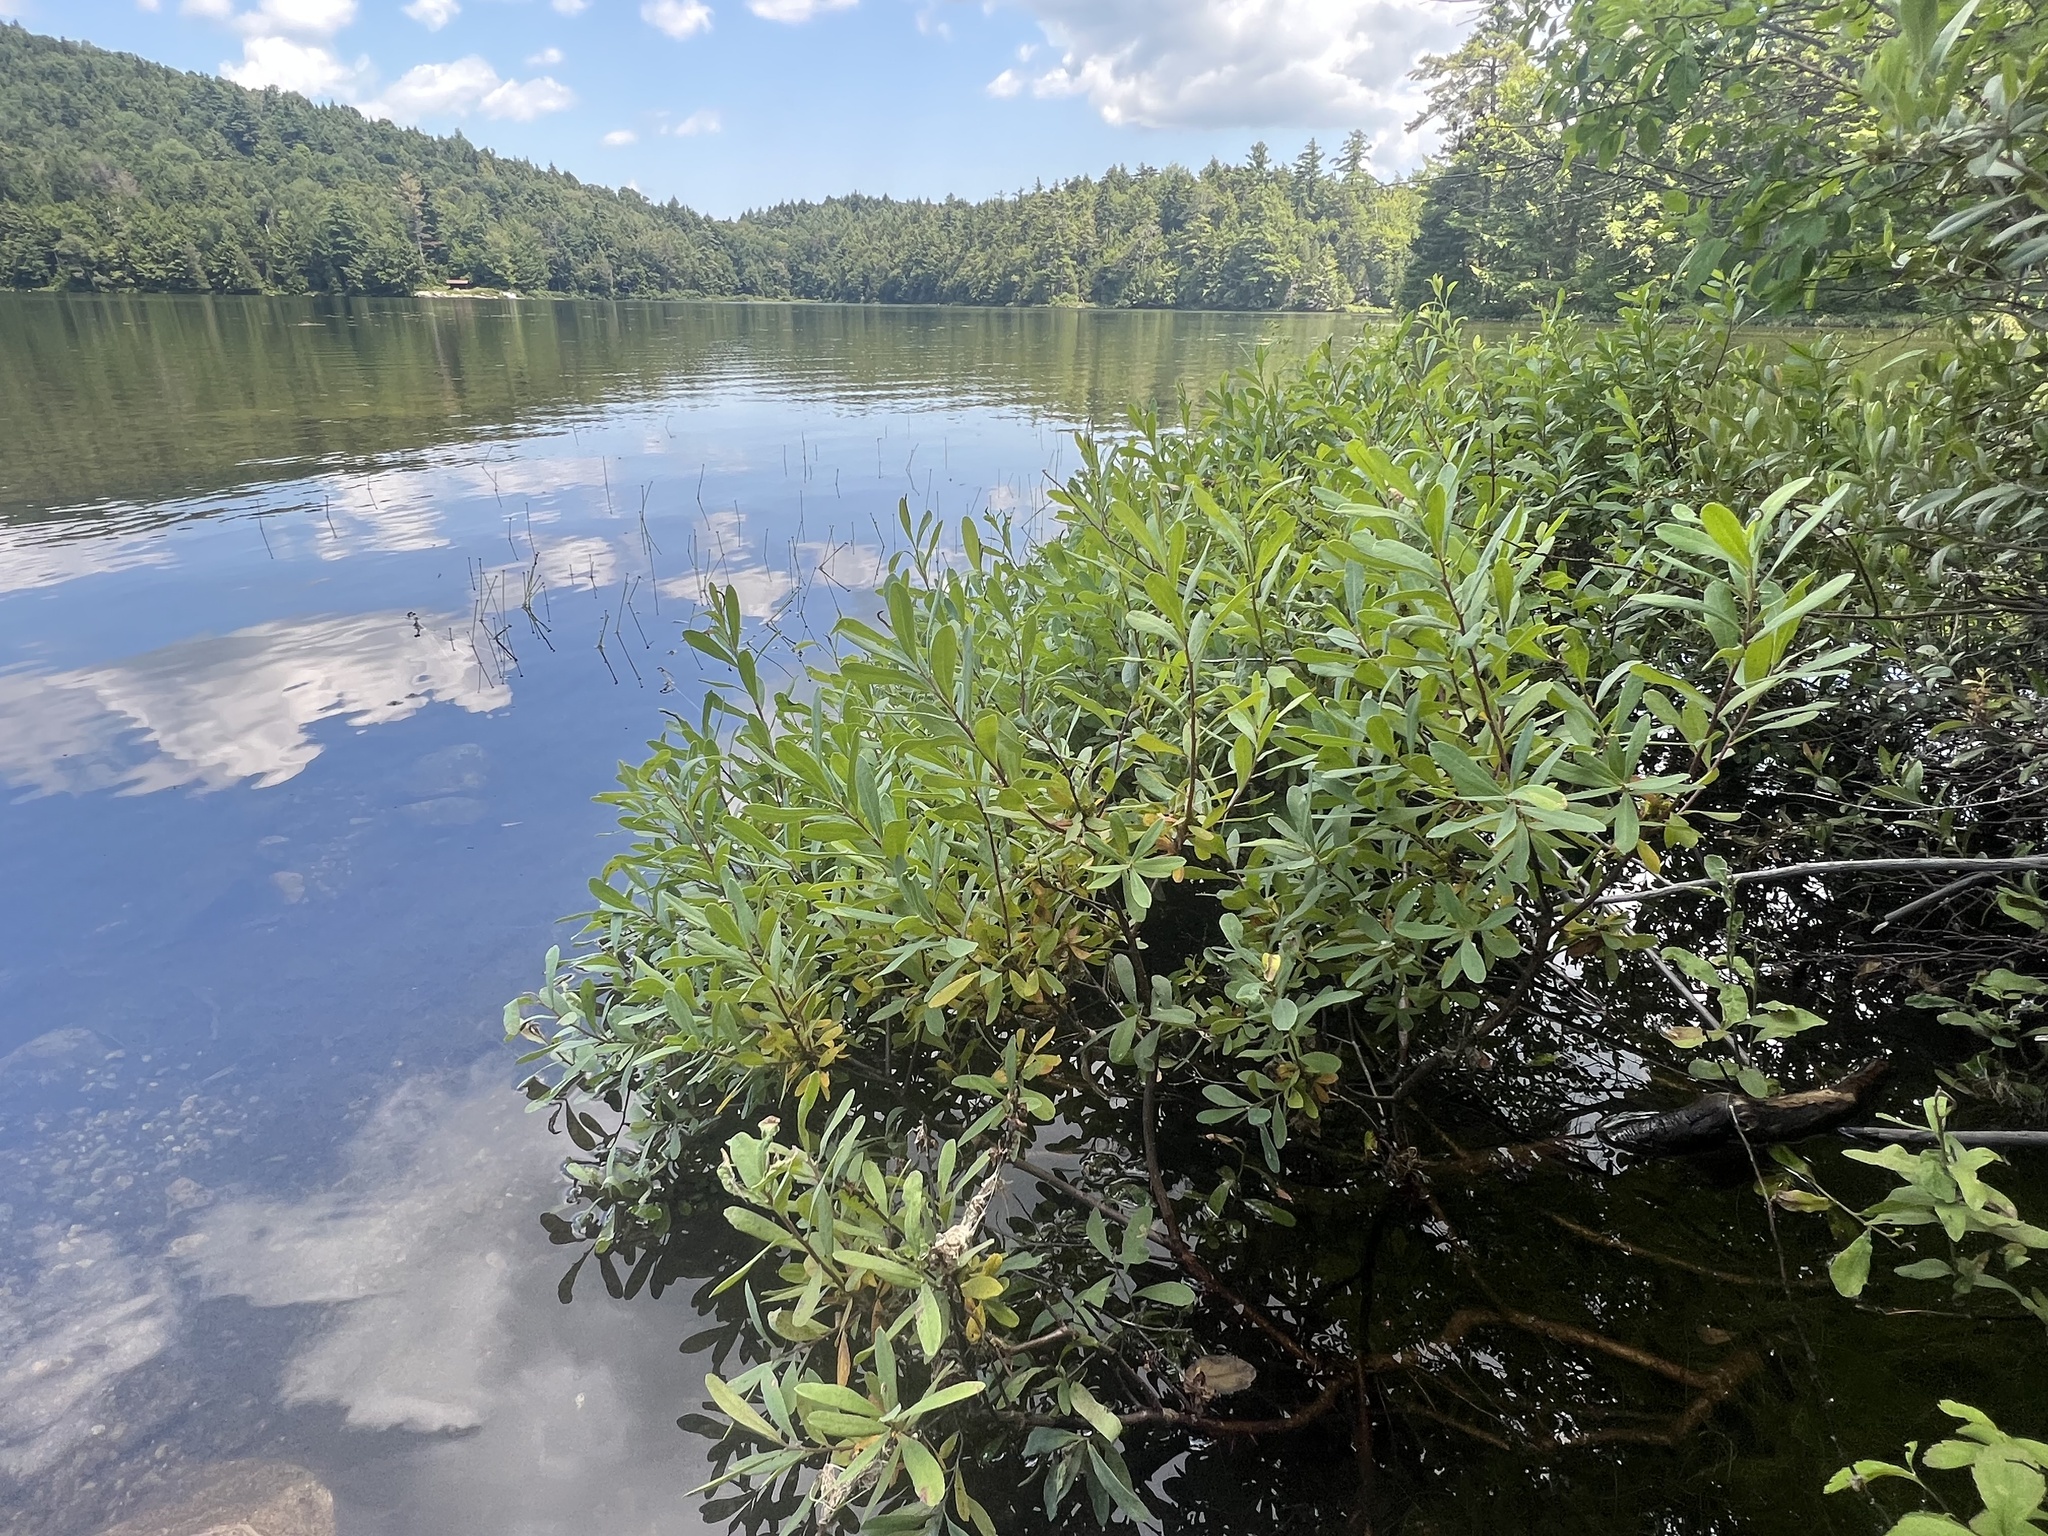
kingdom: Plantae
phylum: Tracheophyta
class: Magnoliopsida
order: Fagales
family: Myricaceae
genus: Myrica
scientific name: Myrica gale
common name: Sweet gale
